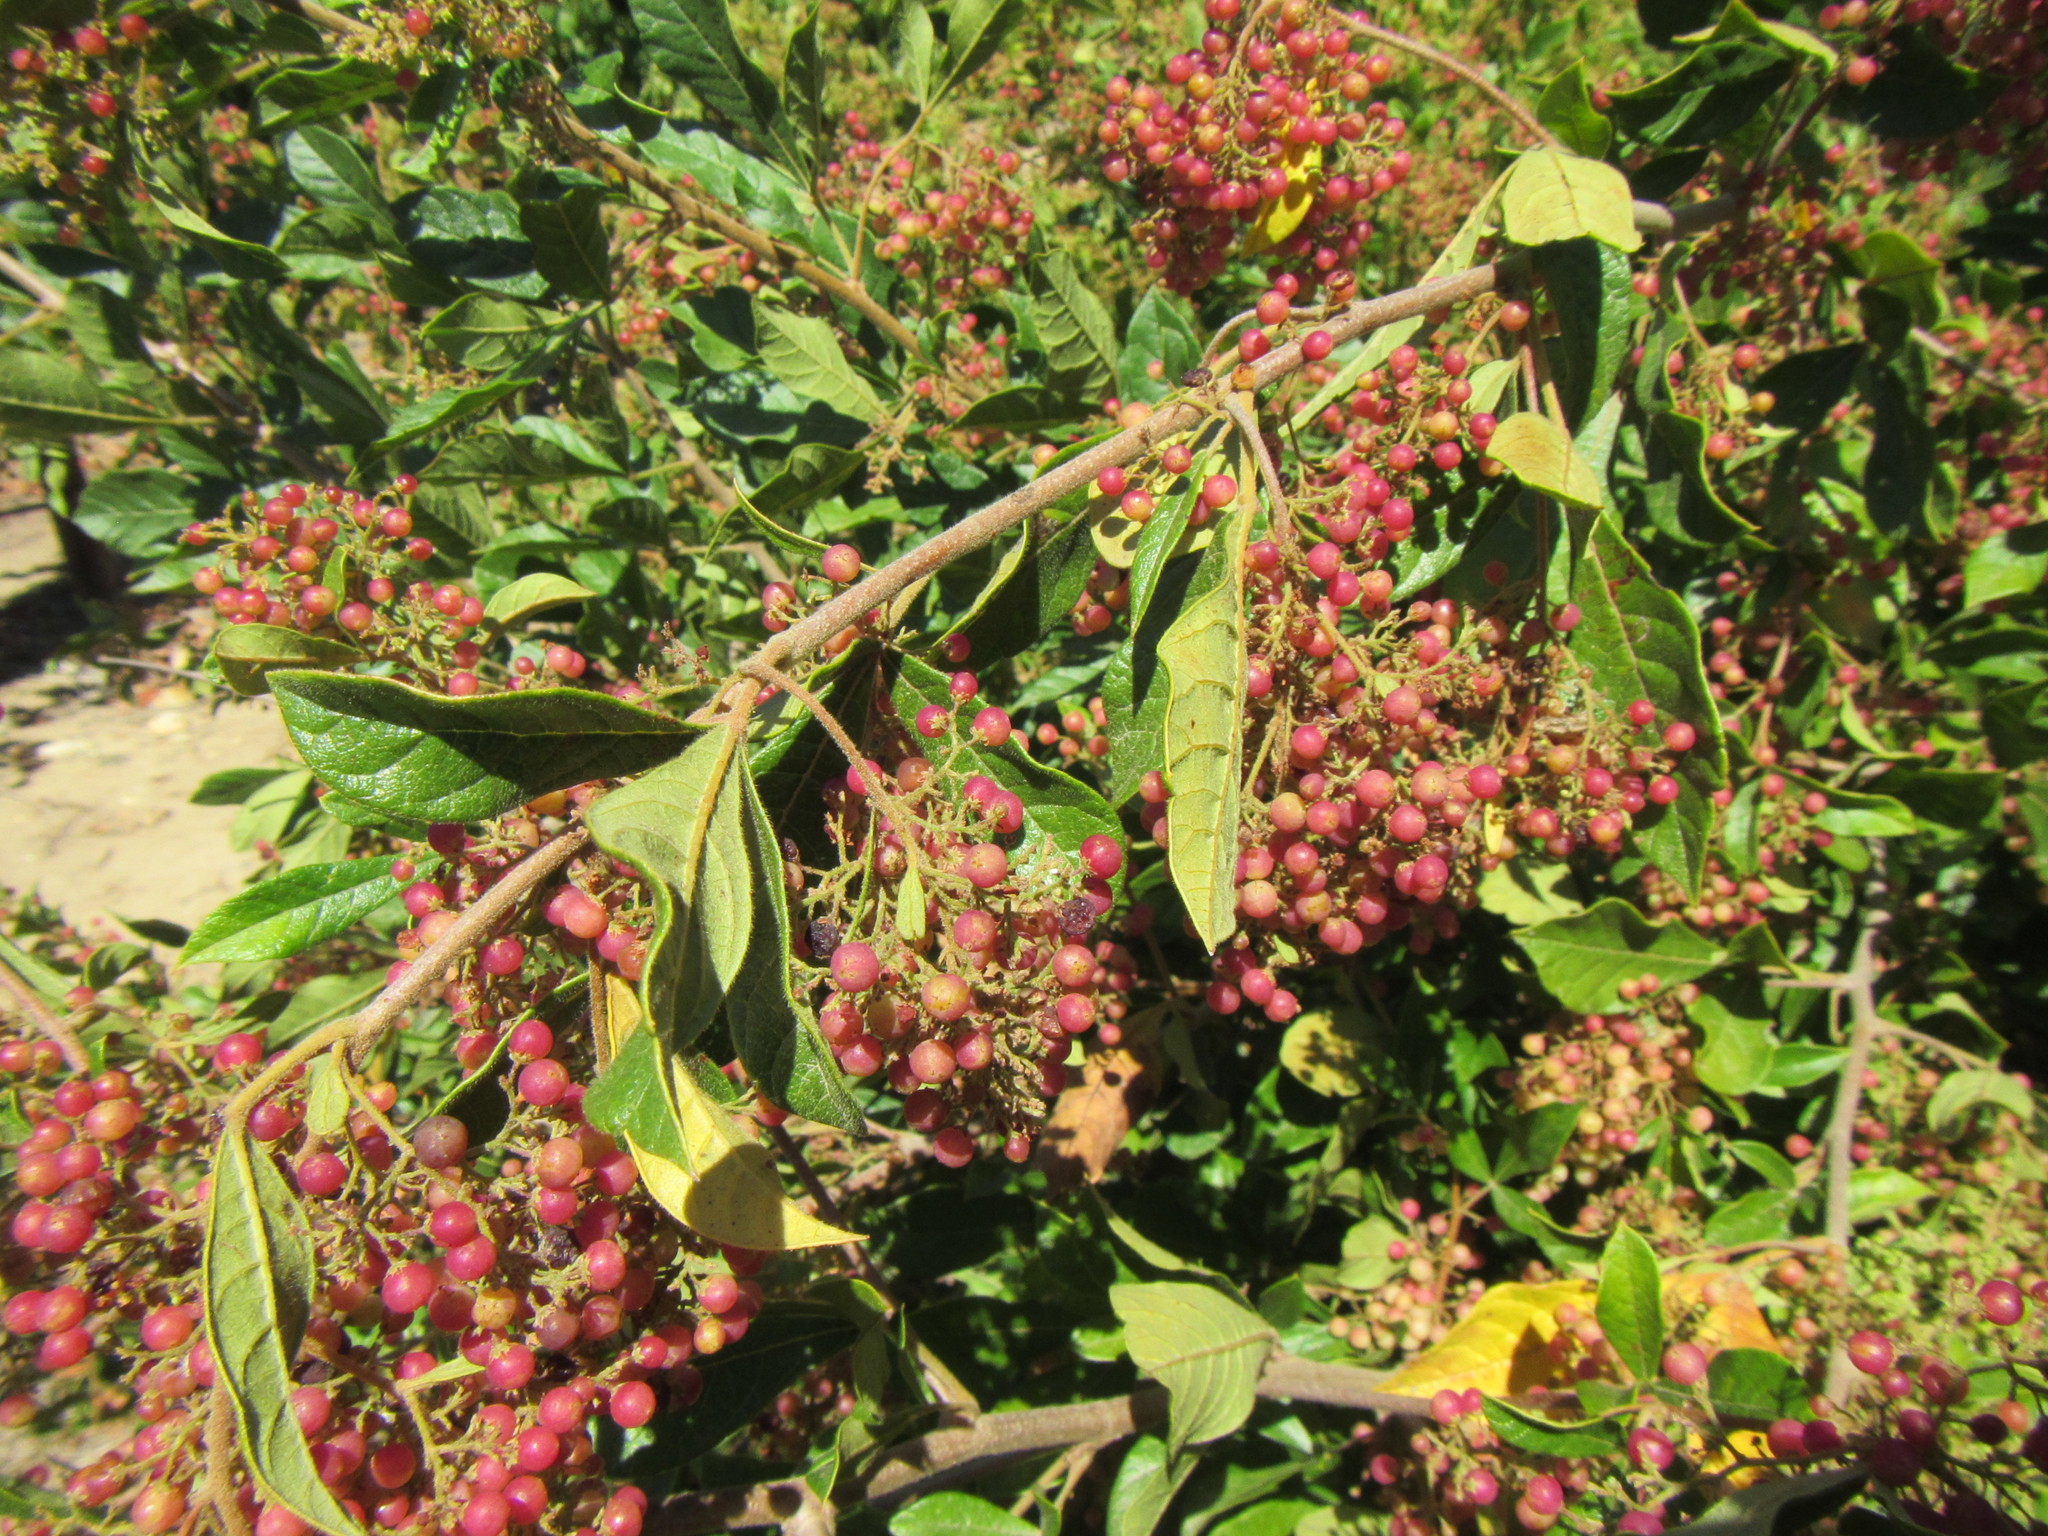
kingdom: Plantae
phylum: Tracheophyta
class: Magnoliopsida
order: Sapindales
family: Anacardiaceae
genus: Searsia
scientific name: Searsia rehmanniana
